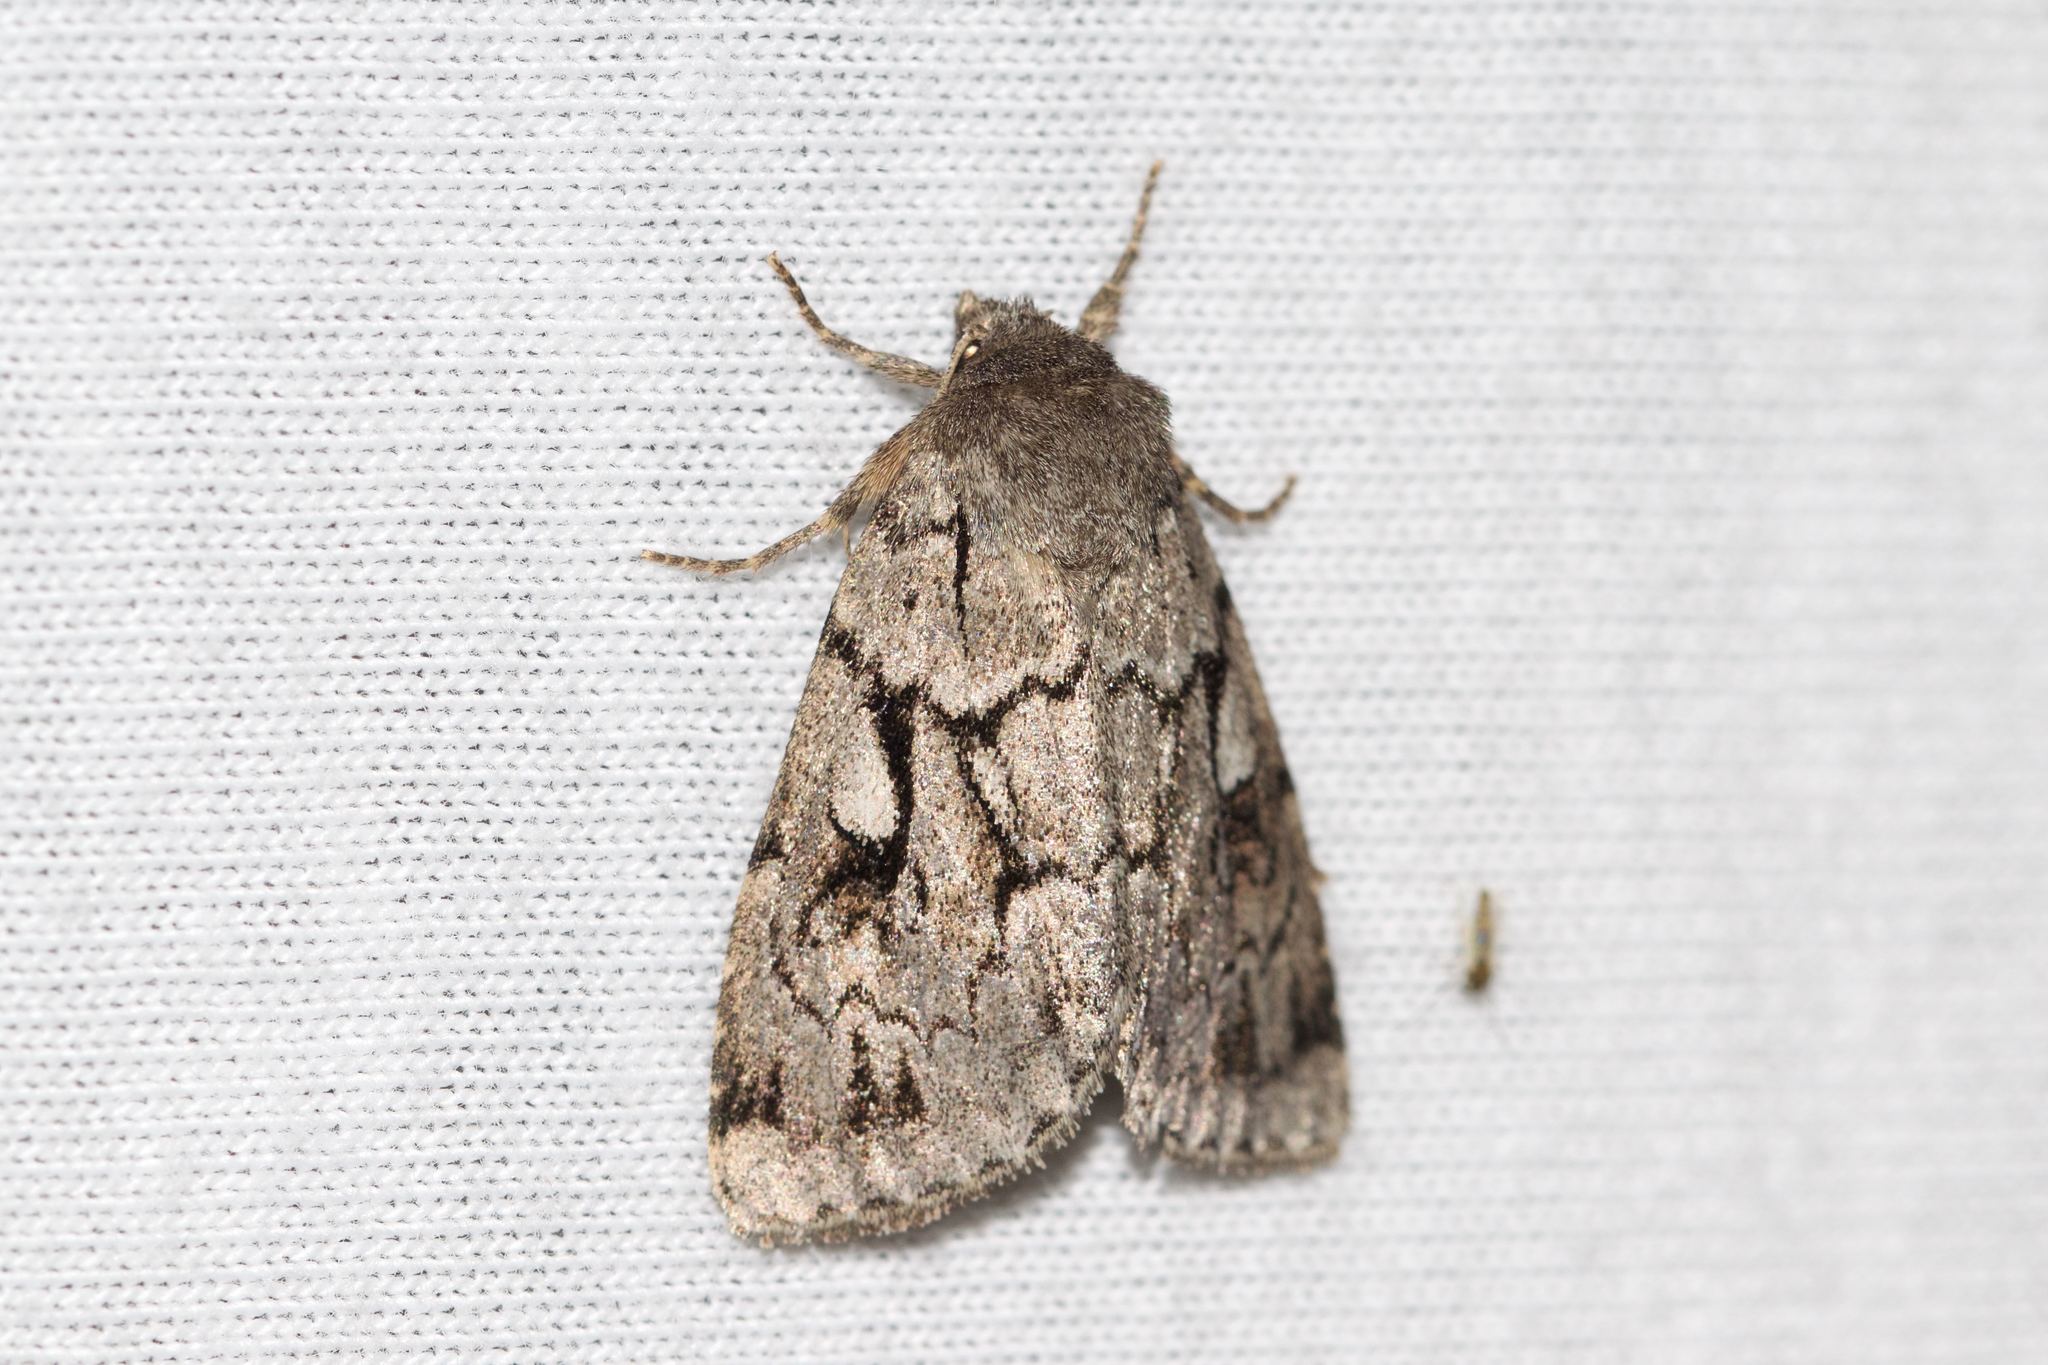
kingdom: Animalia
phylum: Arthropoda
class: Insecta
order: Lepidoptera
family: Noctuidae
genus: Xestia
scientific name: Xestia fabulosa
